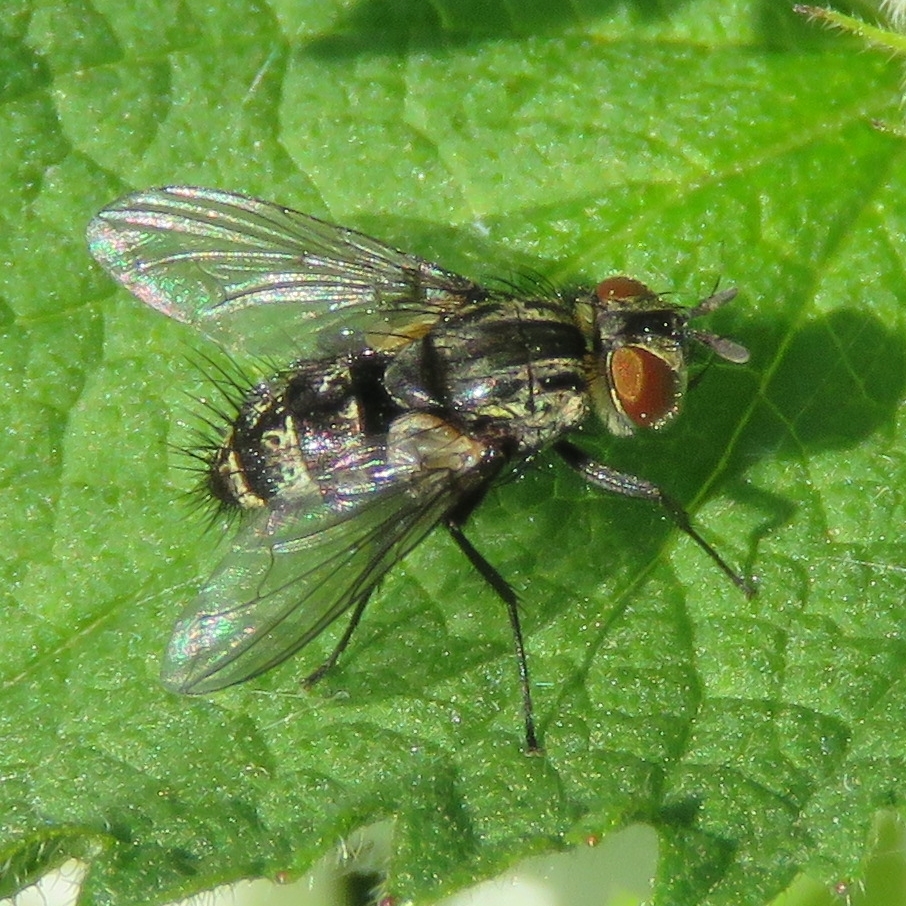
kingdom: Animalia
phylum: Arthropoda
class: Insecta
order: Diptera
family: Tachinidae
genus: Nemorilla
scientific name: Nemorilla floralis
